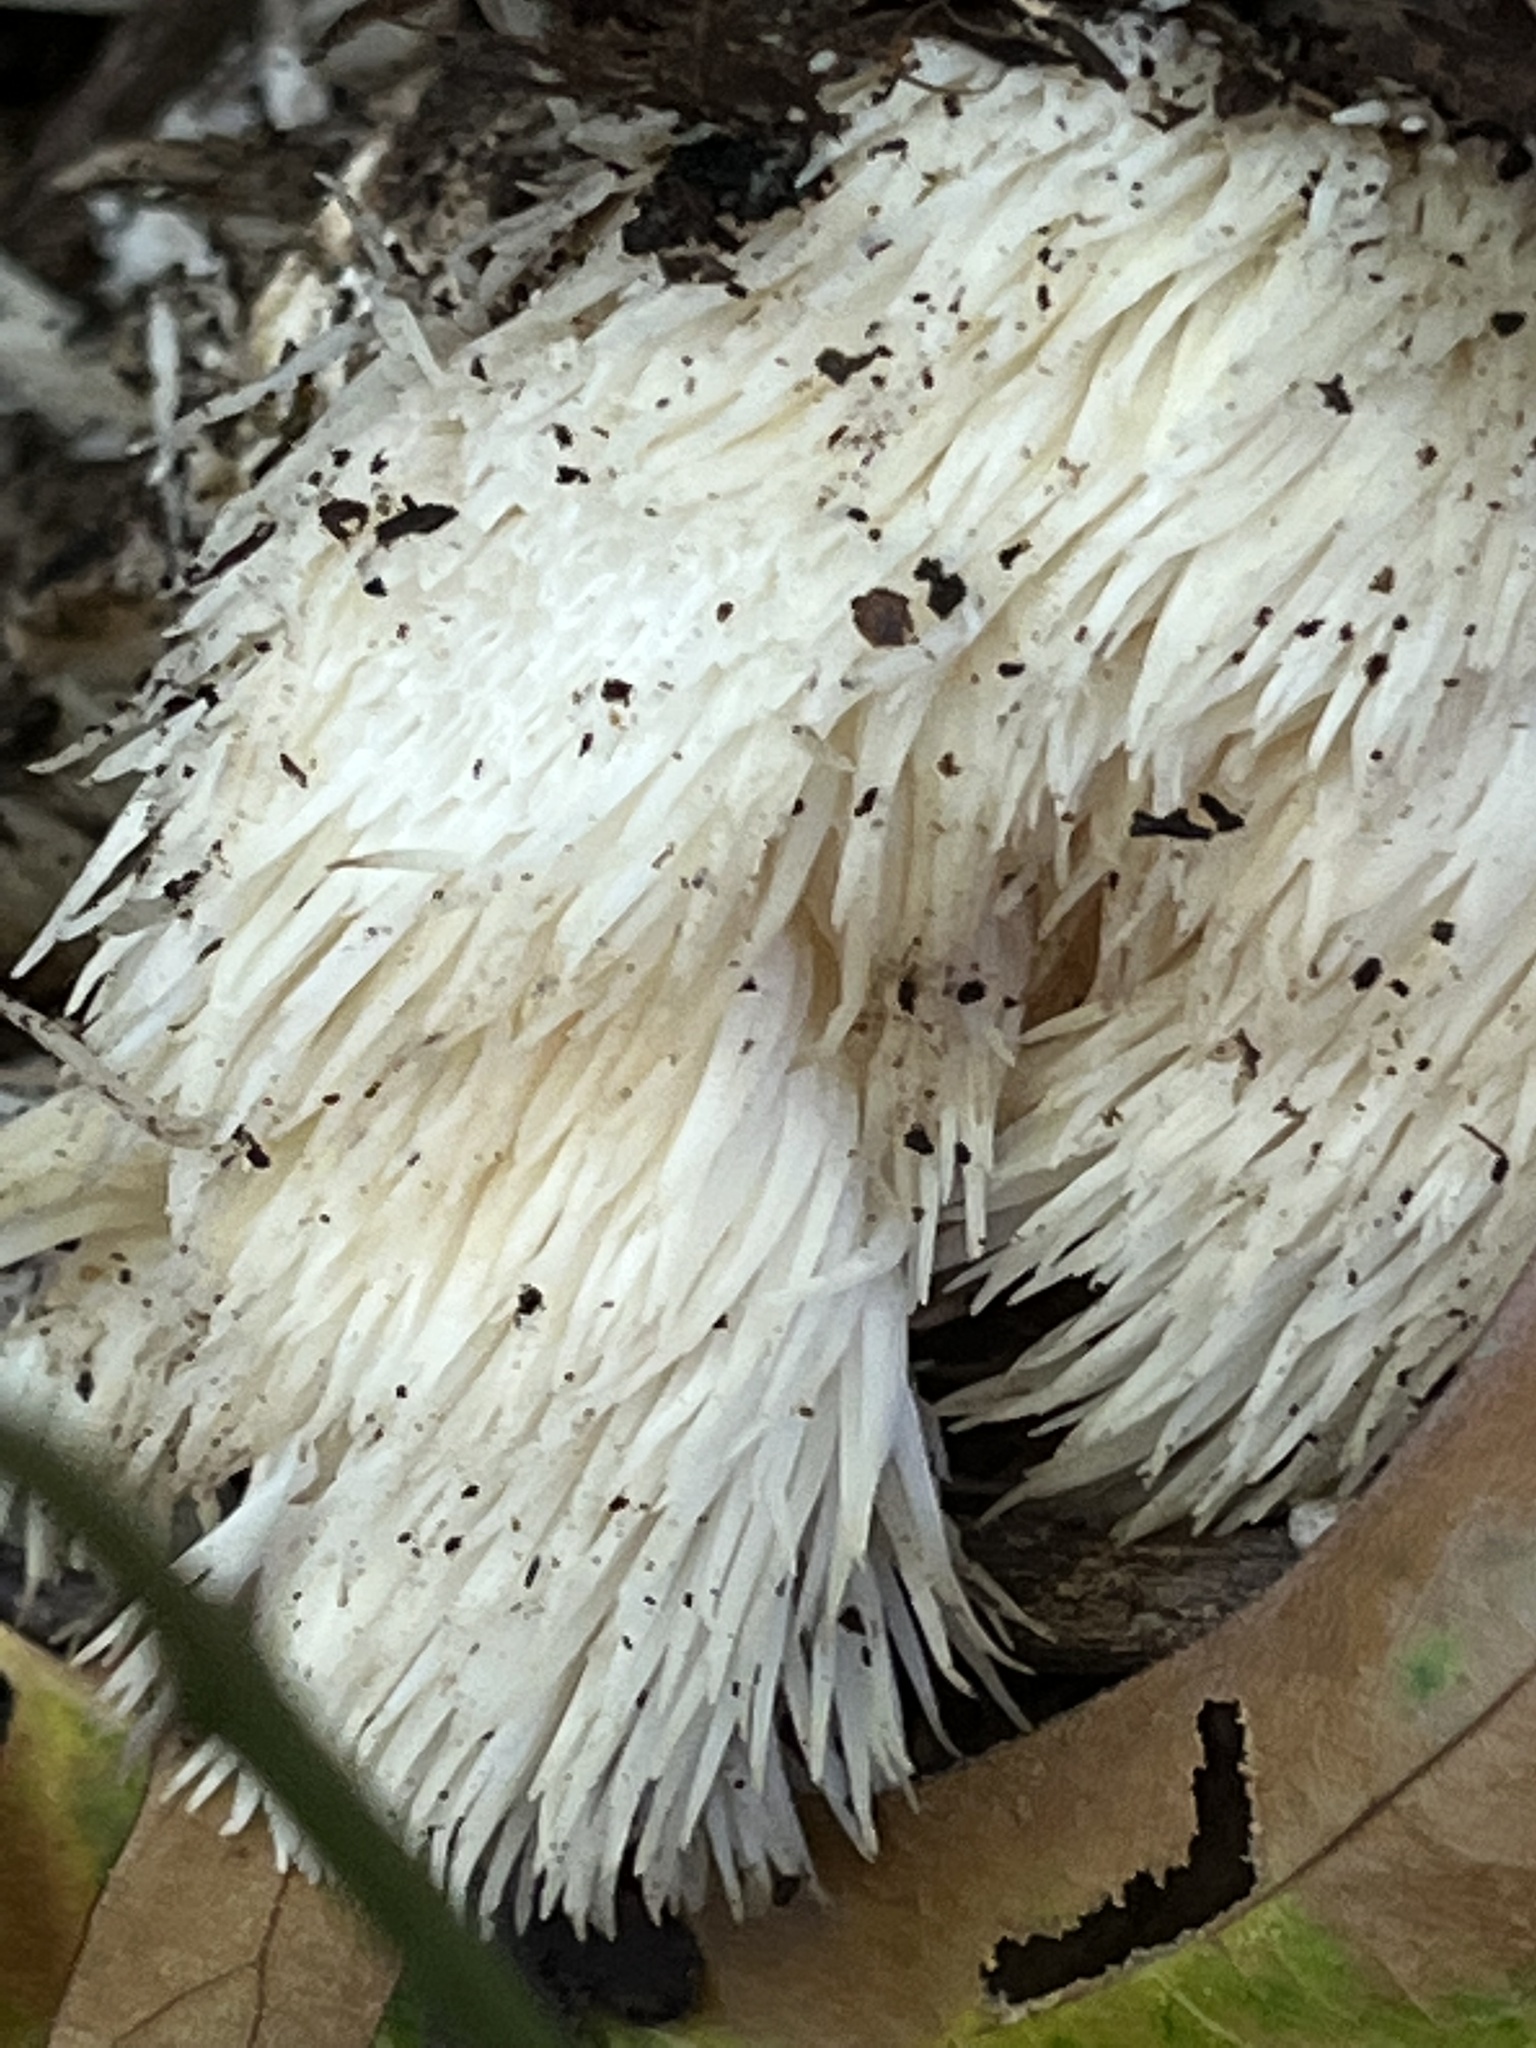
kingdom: Fungi
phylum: Basidiomycota
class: Agaricomycetes
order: Russulales
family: Hericiaceae
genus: Hericium
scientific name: Hericium erinaceus
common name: Bearded tooth
